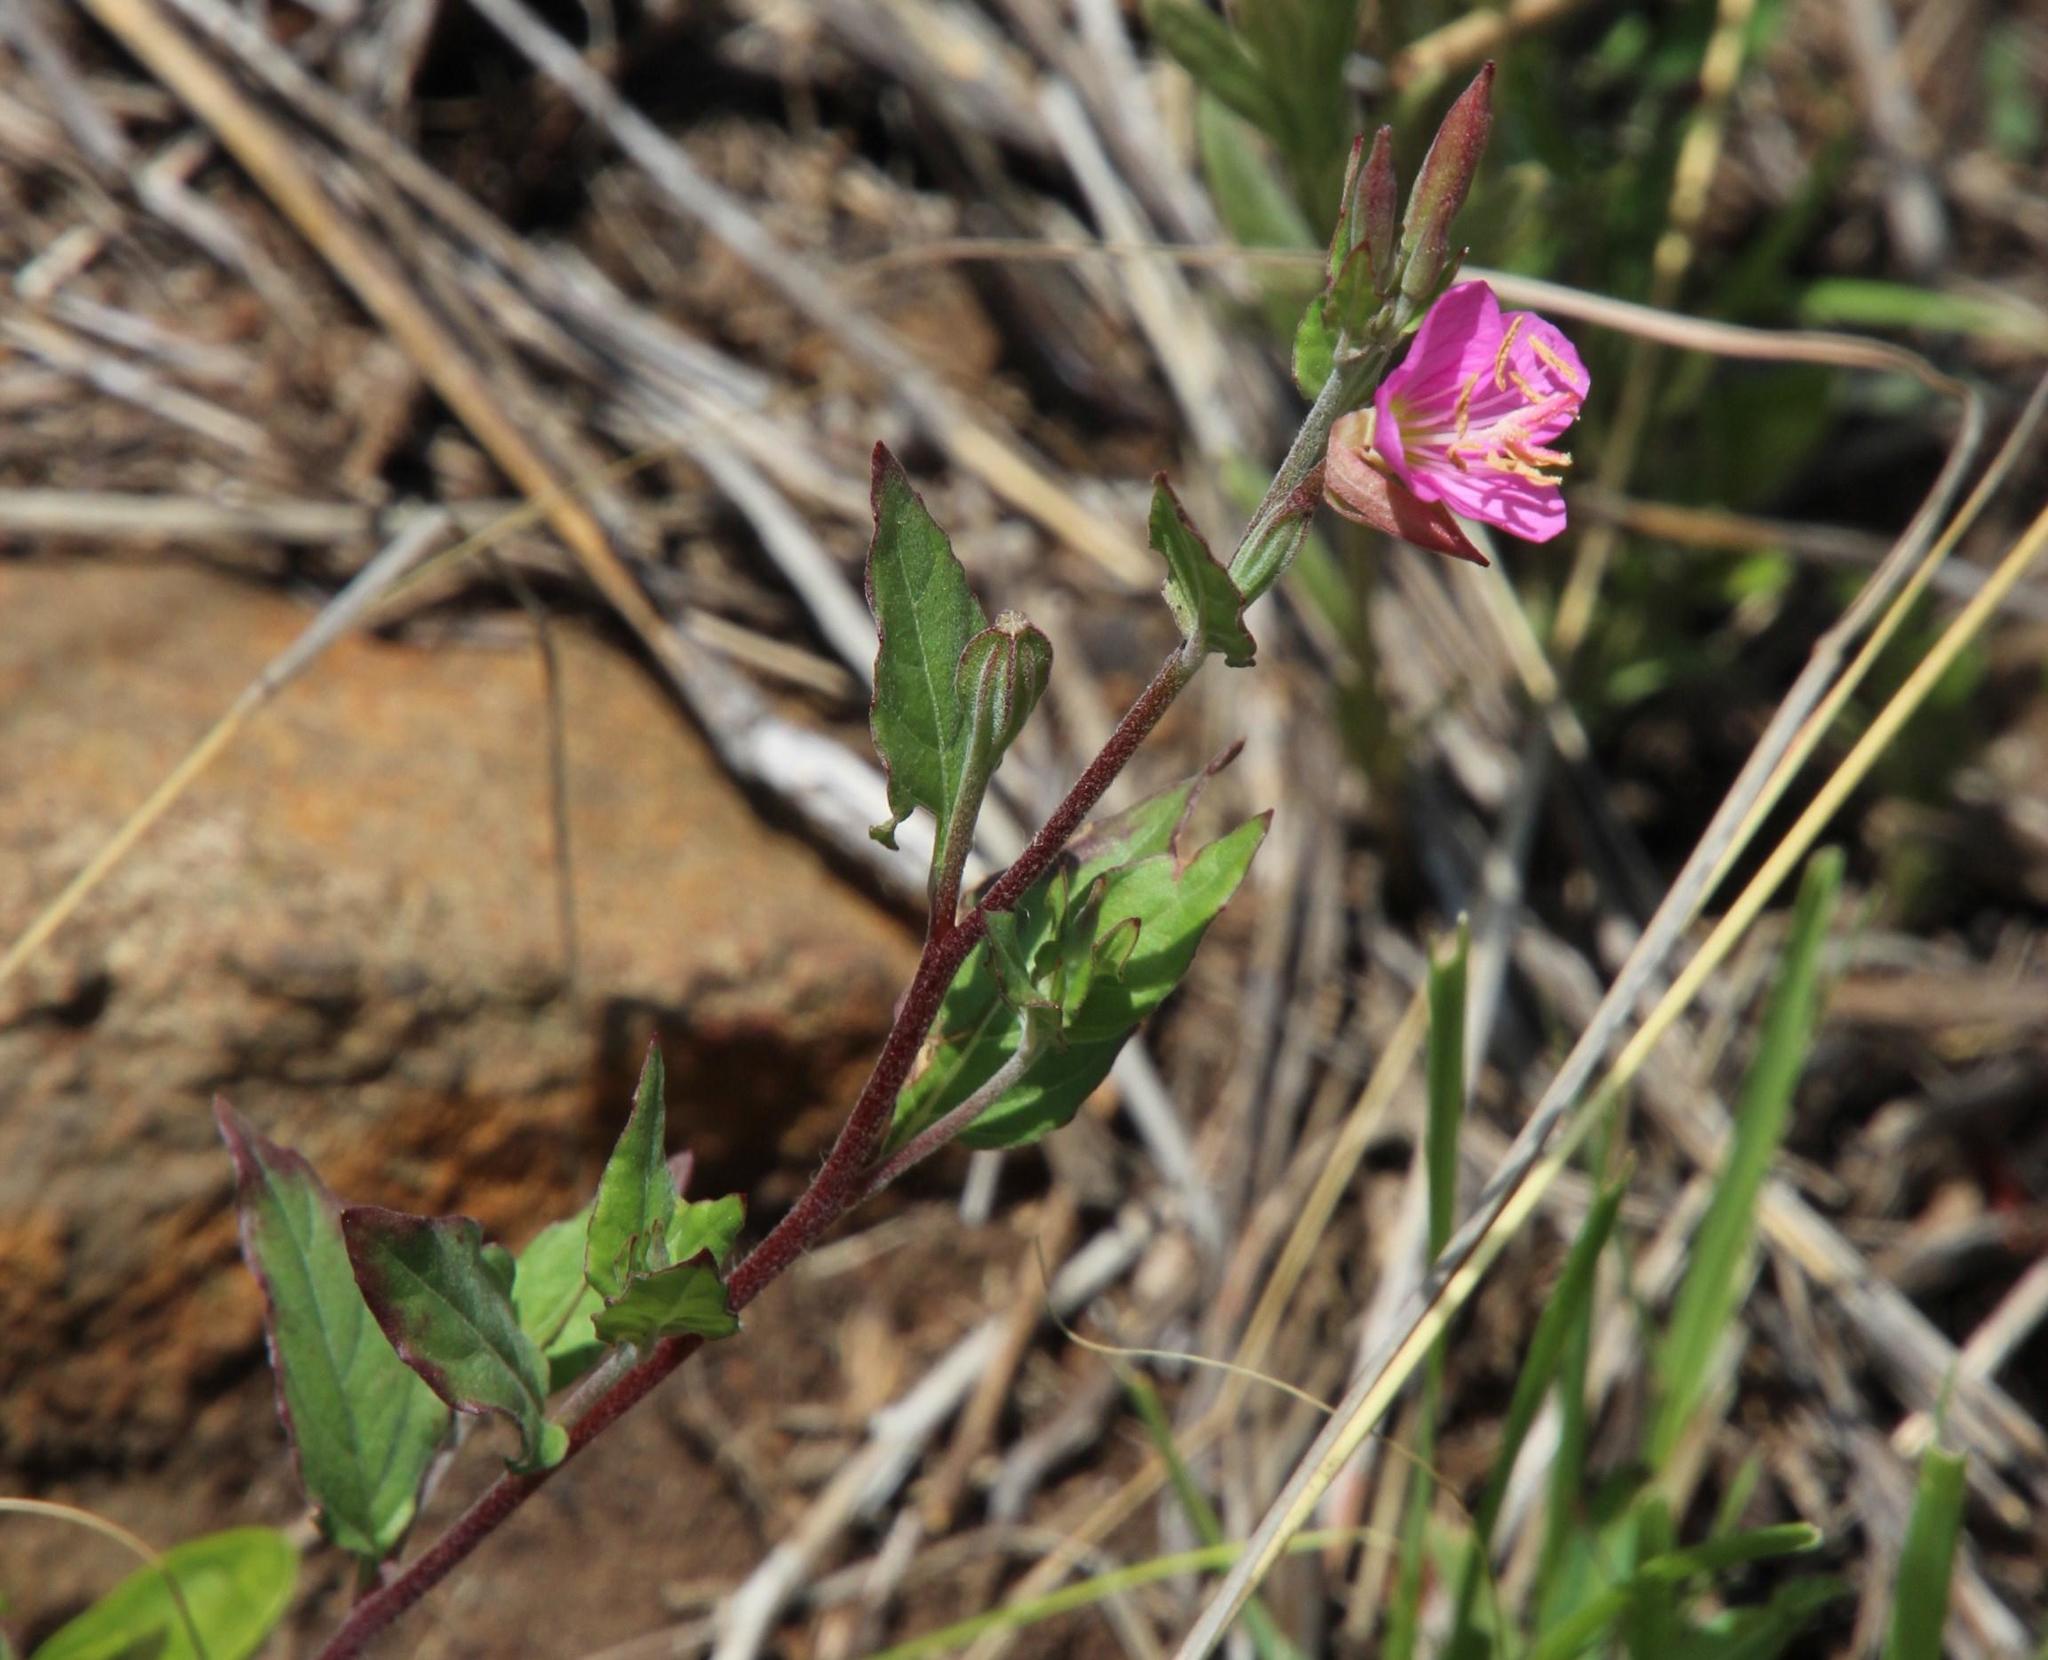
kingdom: Plantae
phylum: Tracheophyta
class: Magnoliopsida
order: Myrtales
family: Onagraceae
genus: Oenothera
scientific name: Oenothera rosea
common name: Rosy evening-primrose
